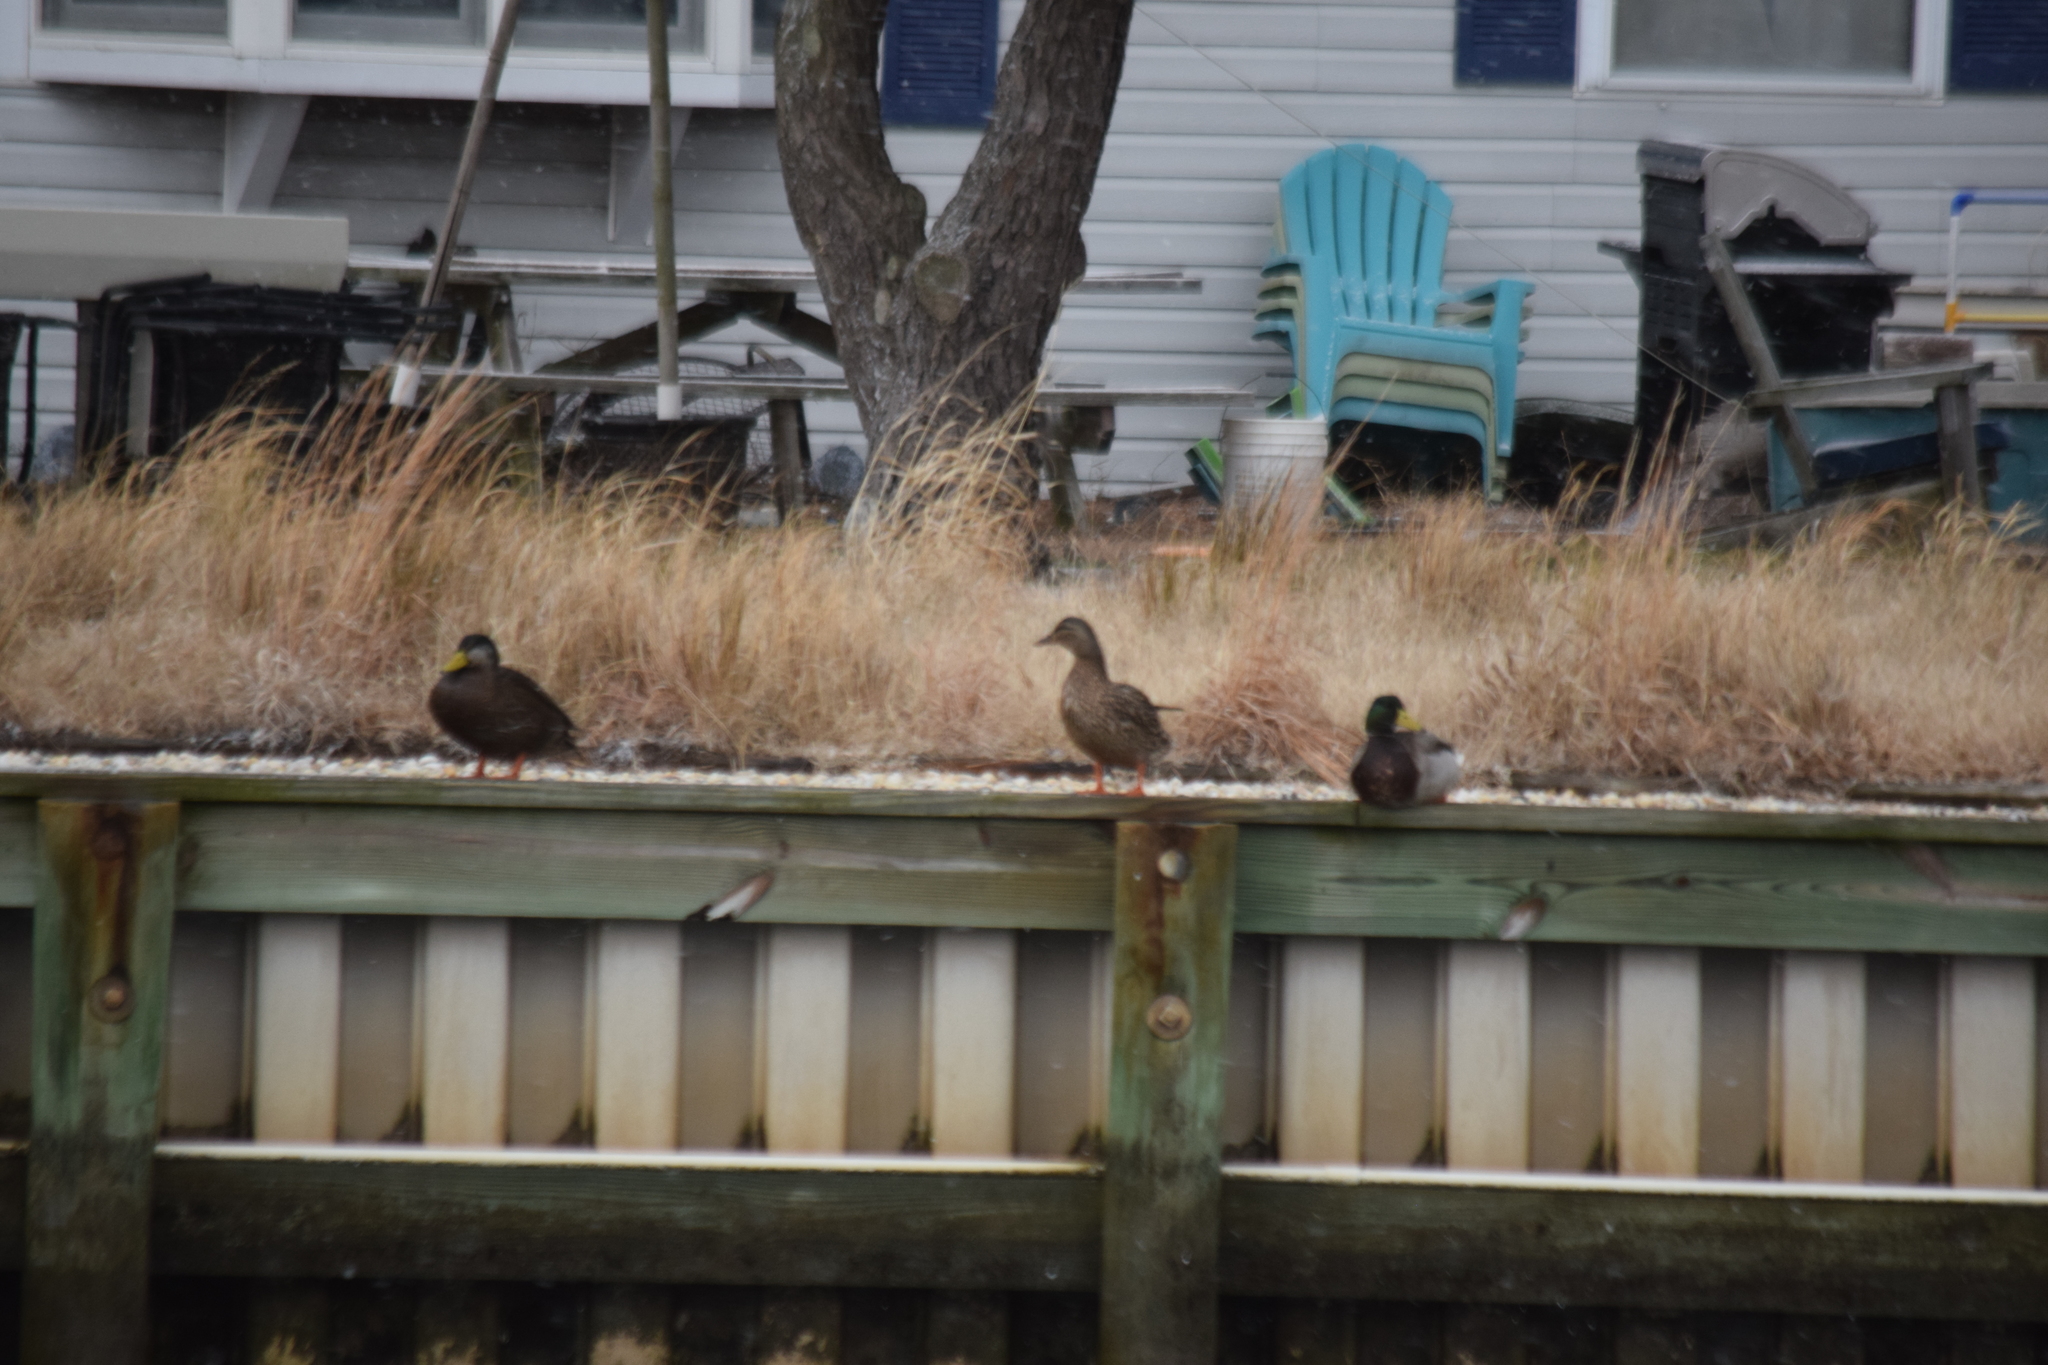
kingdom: Animalia
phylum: Chordata
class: Aves
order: Anseriformes
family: Anatidae
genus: Anas
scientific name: Anas rubripes
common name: American black duck
